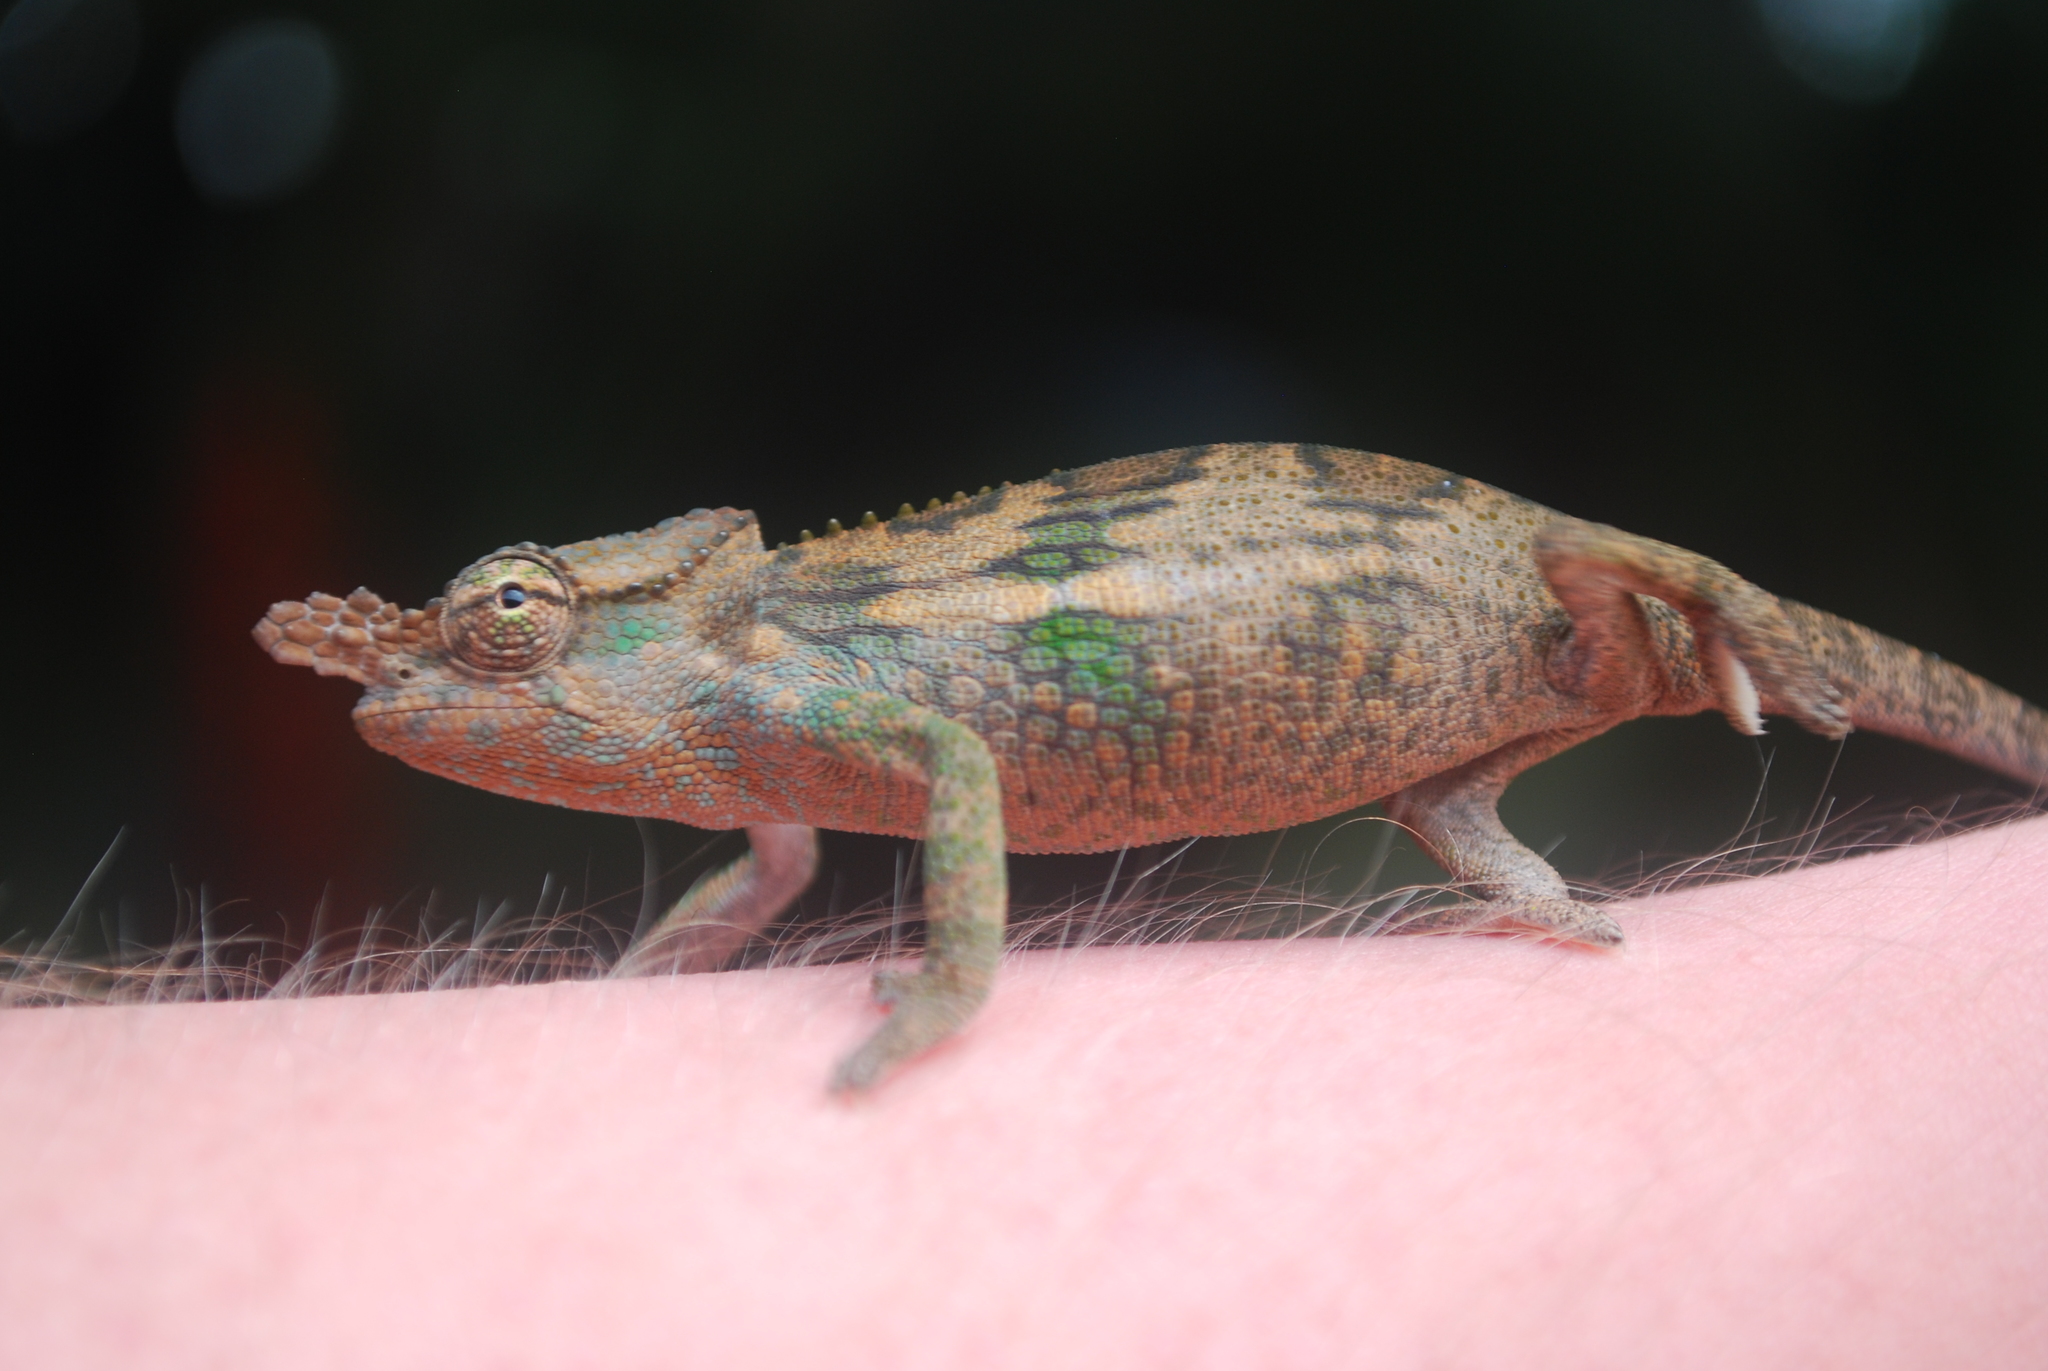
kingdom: Animalia
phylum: Chordata
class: Squamata
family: Chamaeleonidae
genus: Kinyongia
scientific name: Kinyongia boehmei
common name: Böhme’s two-horned chameleon
